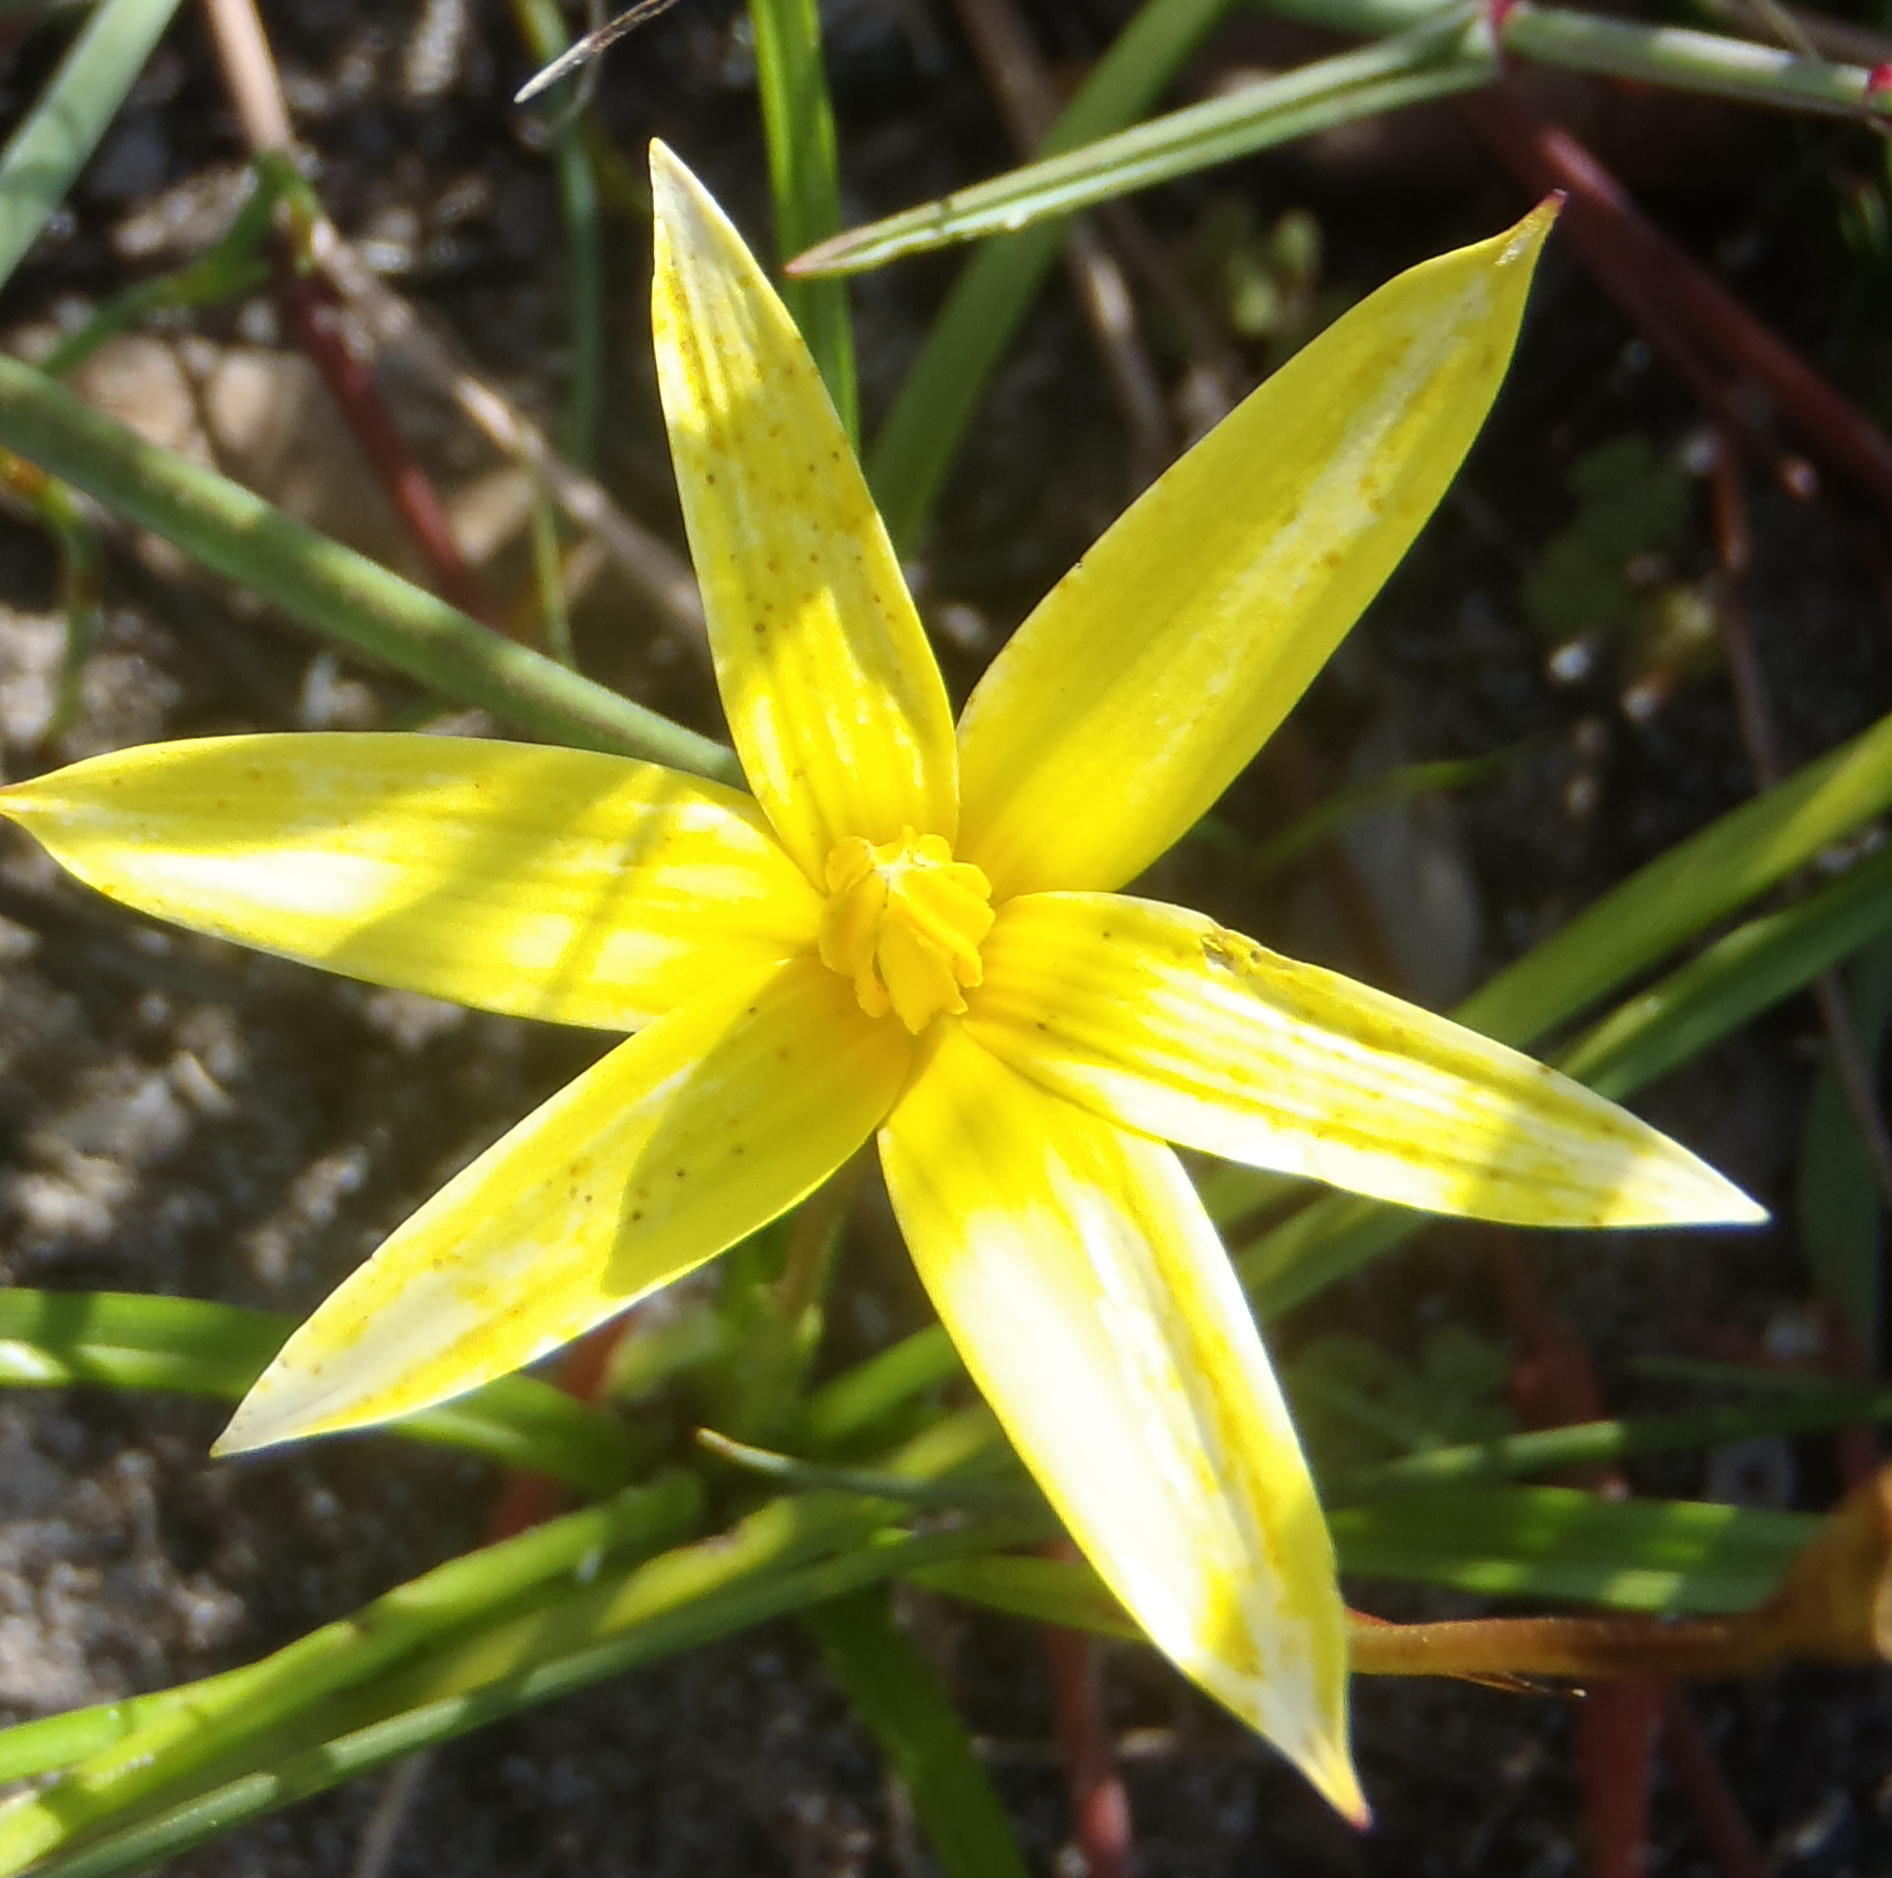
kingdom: Plantae
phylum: Tracheophyta
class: Liliopsida
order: Asparagales
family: Hypoxidaceae
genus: Pauridia
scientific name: Pauridia capensis
